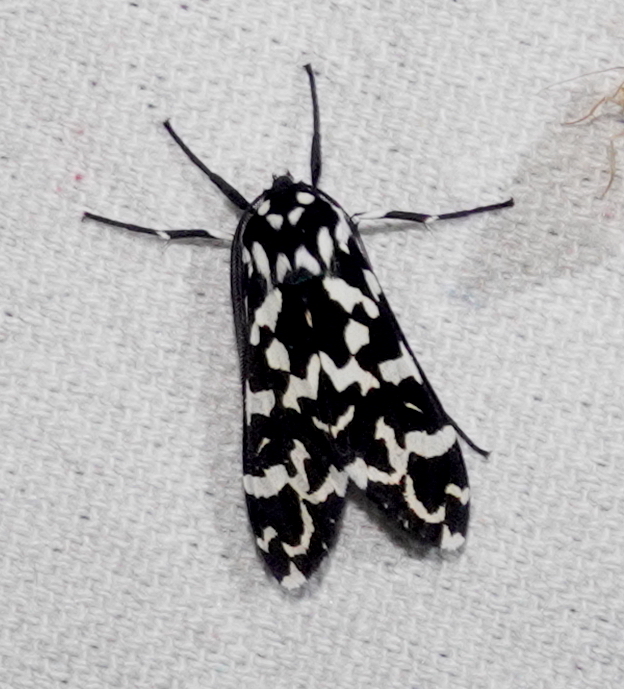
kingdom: Animalia
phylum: Arthropoda
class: Insecta
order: Lepidoptera
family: Erebidae
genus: Eucereon
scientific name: Eucereon Galethalea davidi
